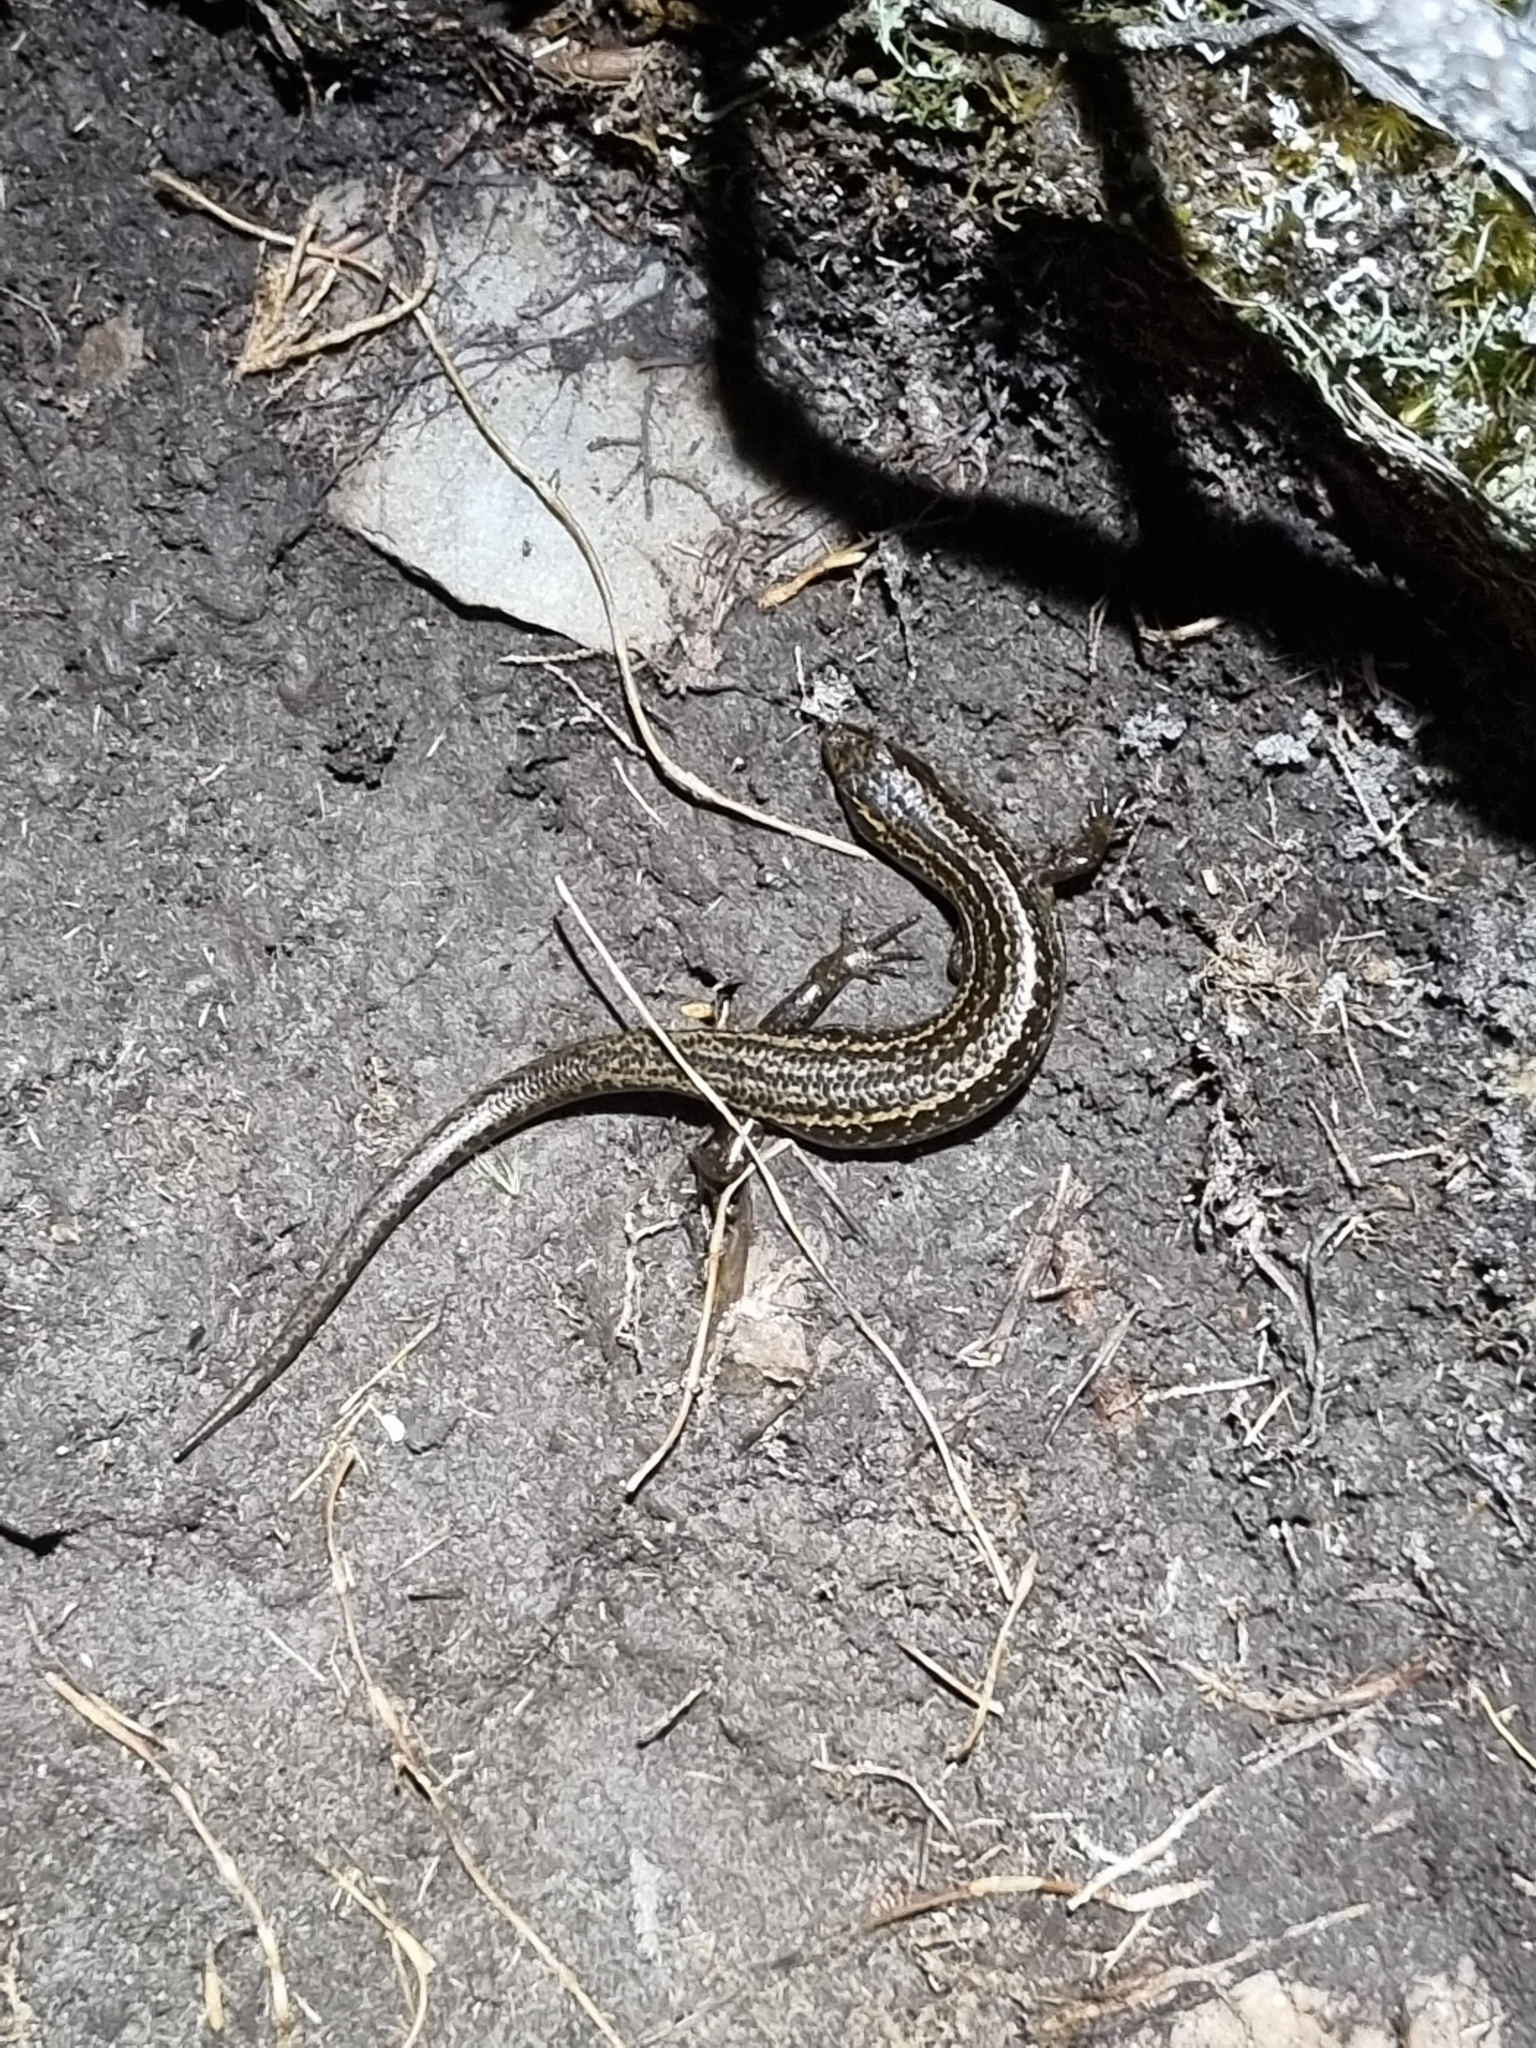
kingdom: Animalia
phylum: Chordata
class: Squamata
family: Scincidae
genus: Oligosoma
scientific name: Oligosoma newmani
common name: Newman’s speckled skink
